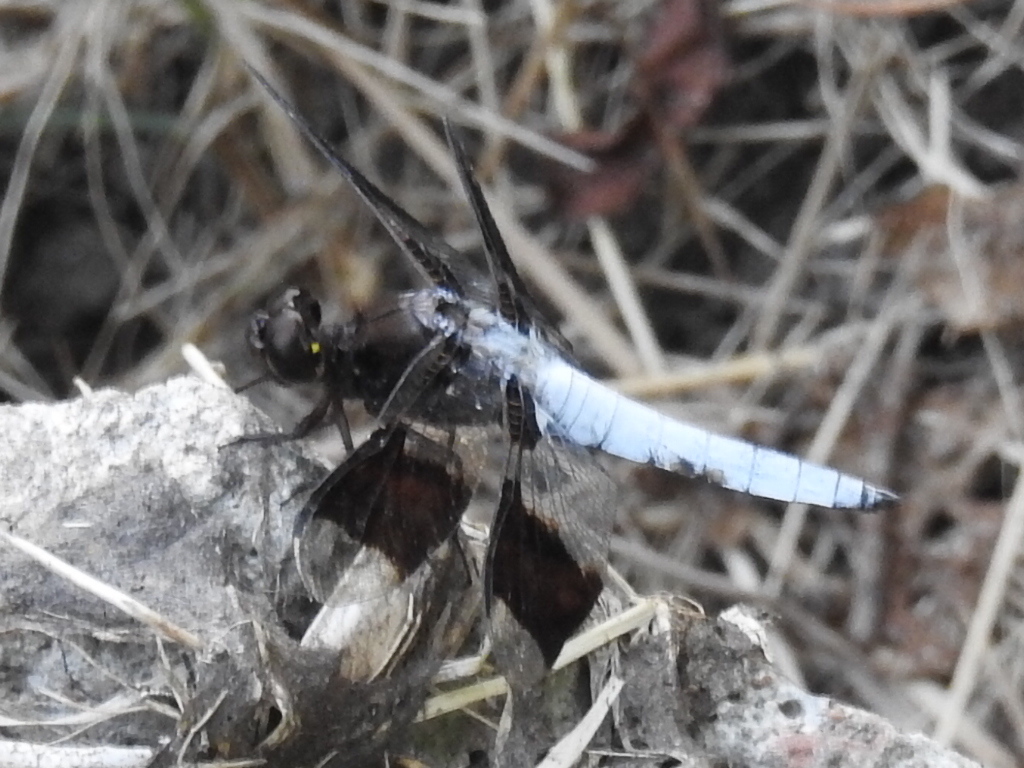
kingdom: Animalia
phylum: Arthropoda
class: Insecta
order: Odonata
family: Libellulidae
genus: Plathemis
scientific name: Plathemis lydia
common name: Common whitetail
